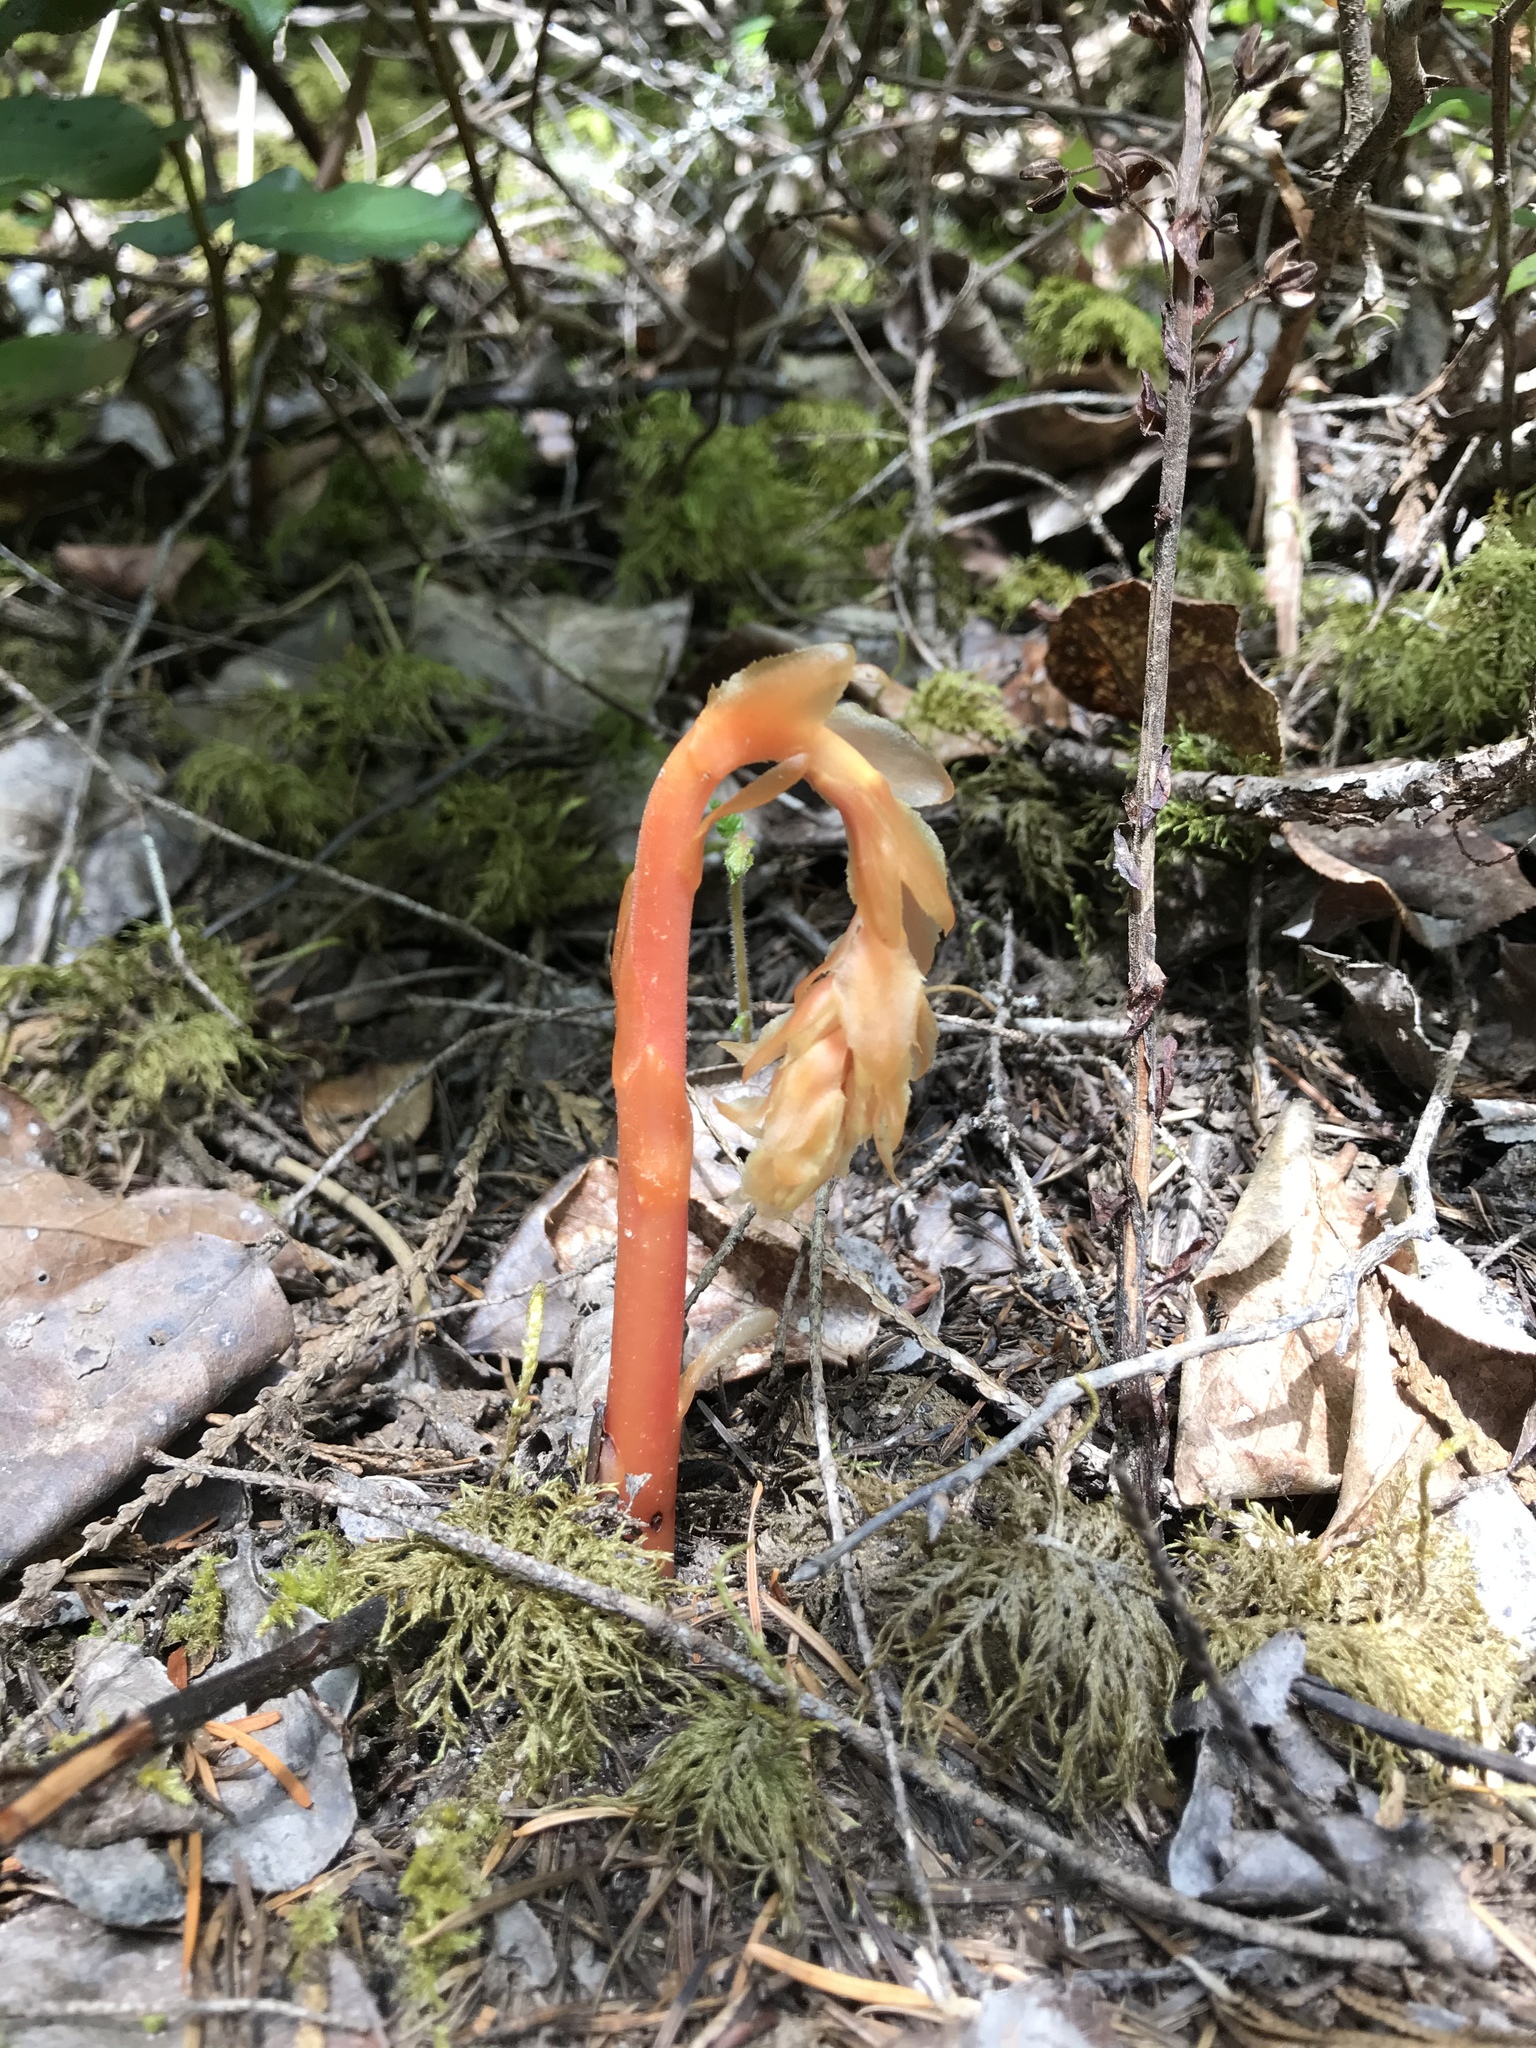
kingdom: Plantae
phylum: Tracheophyta
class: Magnoliopsida
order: Ericales
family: Ericaceae
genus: Hypopitys
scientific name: Hypopitys monotropa
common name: Yellow bird's-nest
